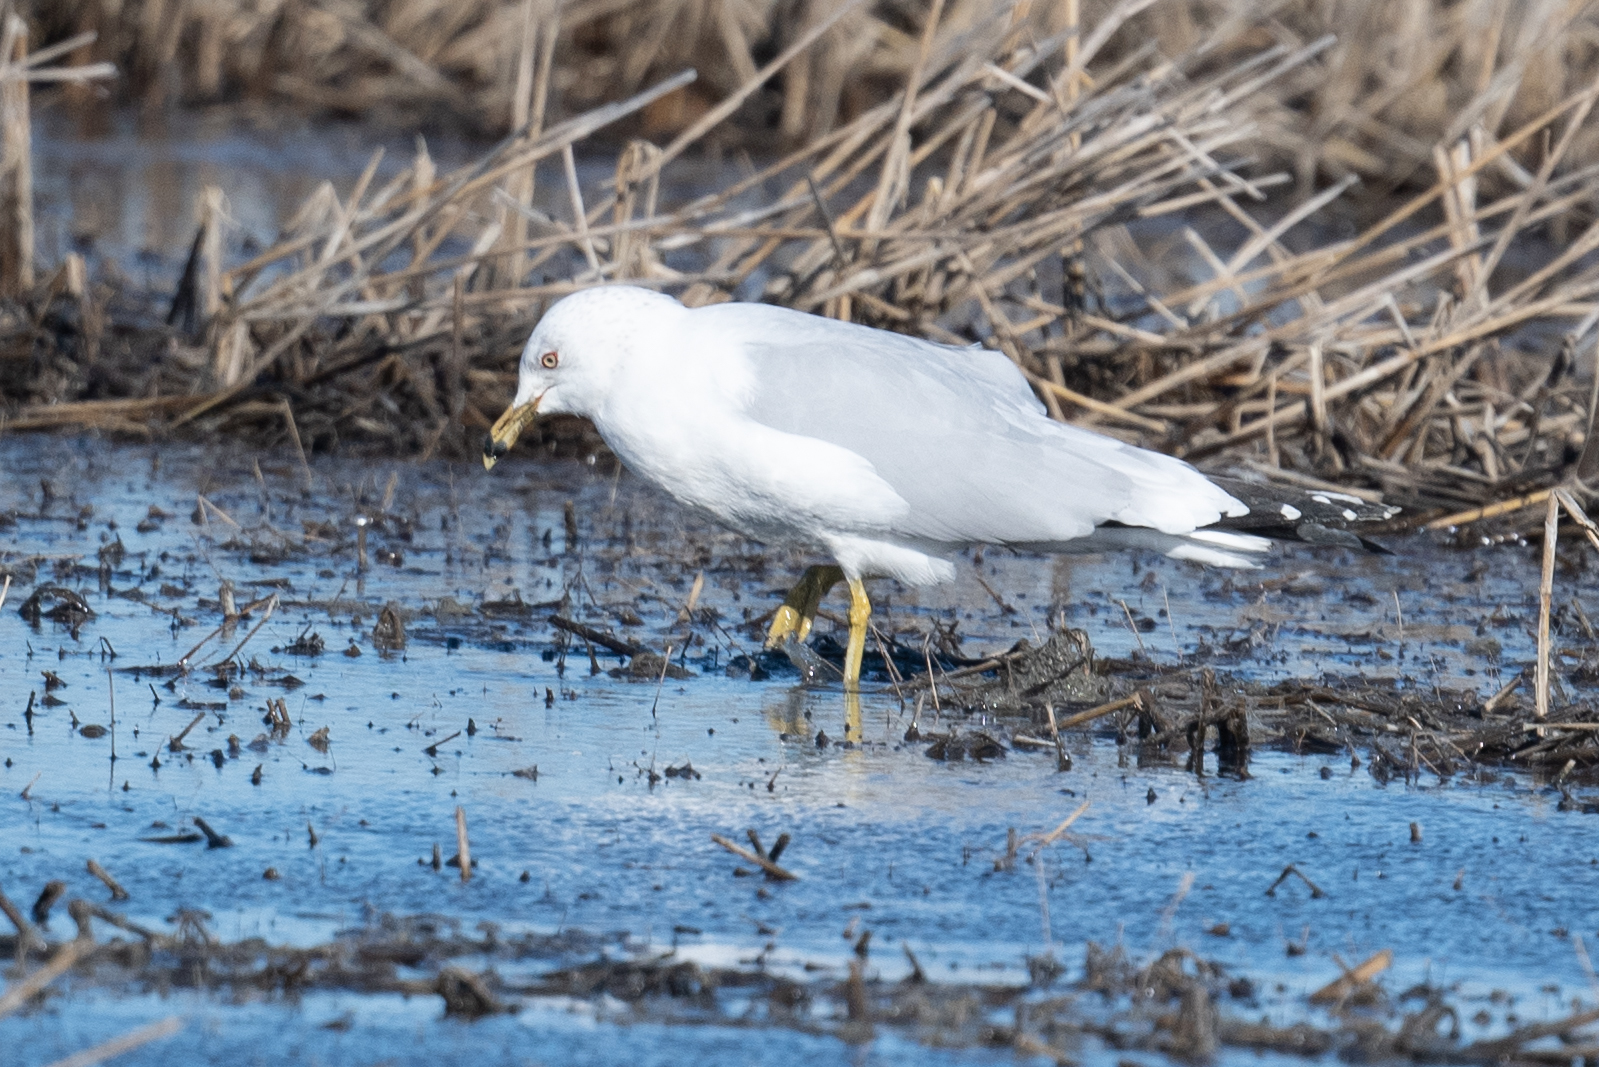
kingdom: Animalia
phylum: Chordata
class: Aves
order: Charadriiformes
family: Laridae
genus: Larus
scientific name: Larus delawarensis
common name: Ring-billed gull
